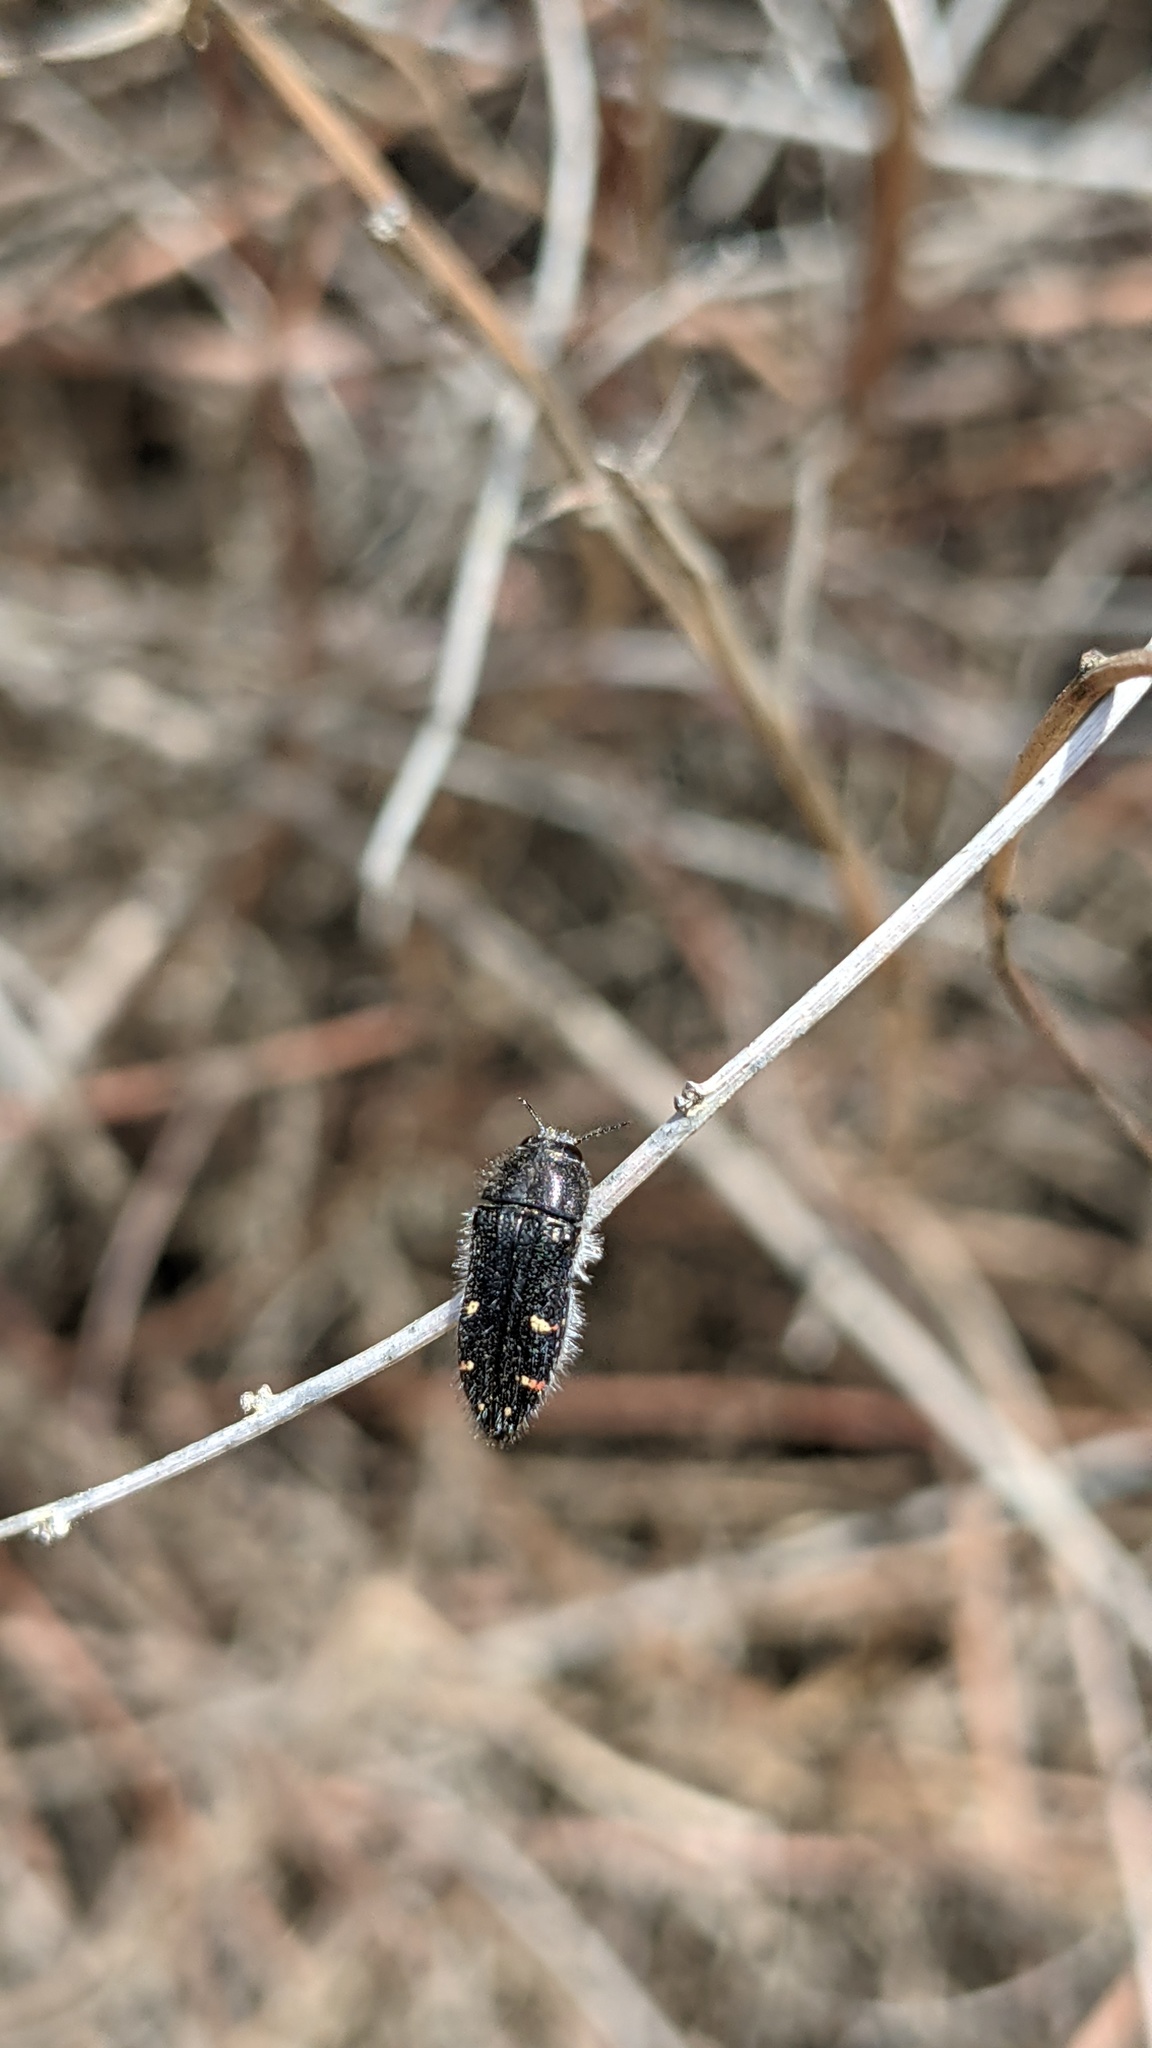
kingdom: Animalia
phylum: Arthropoda
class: Insecta
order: Coleoptera
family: Buprestidae
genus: Acmaeodera
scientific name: Acmaeodera angelica
